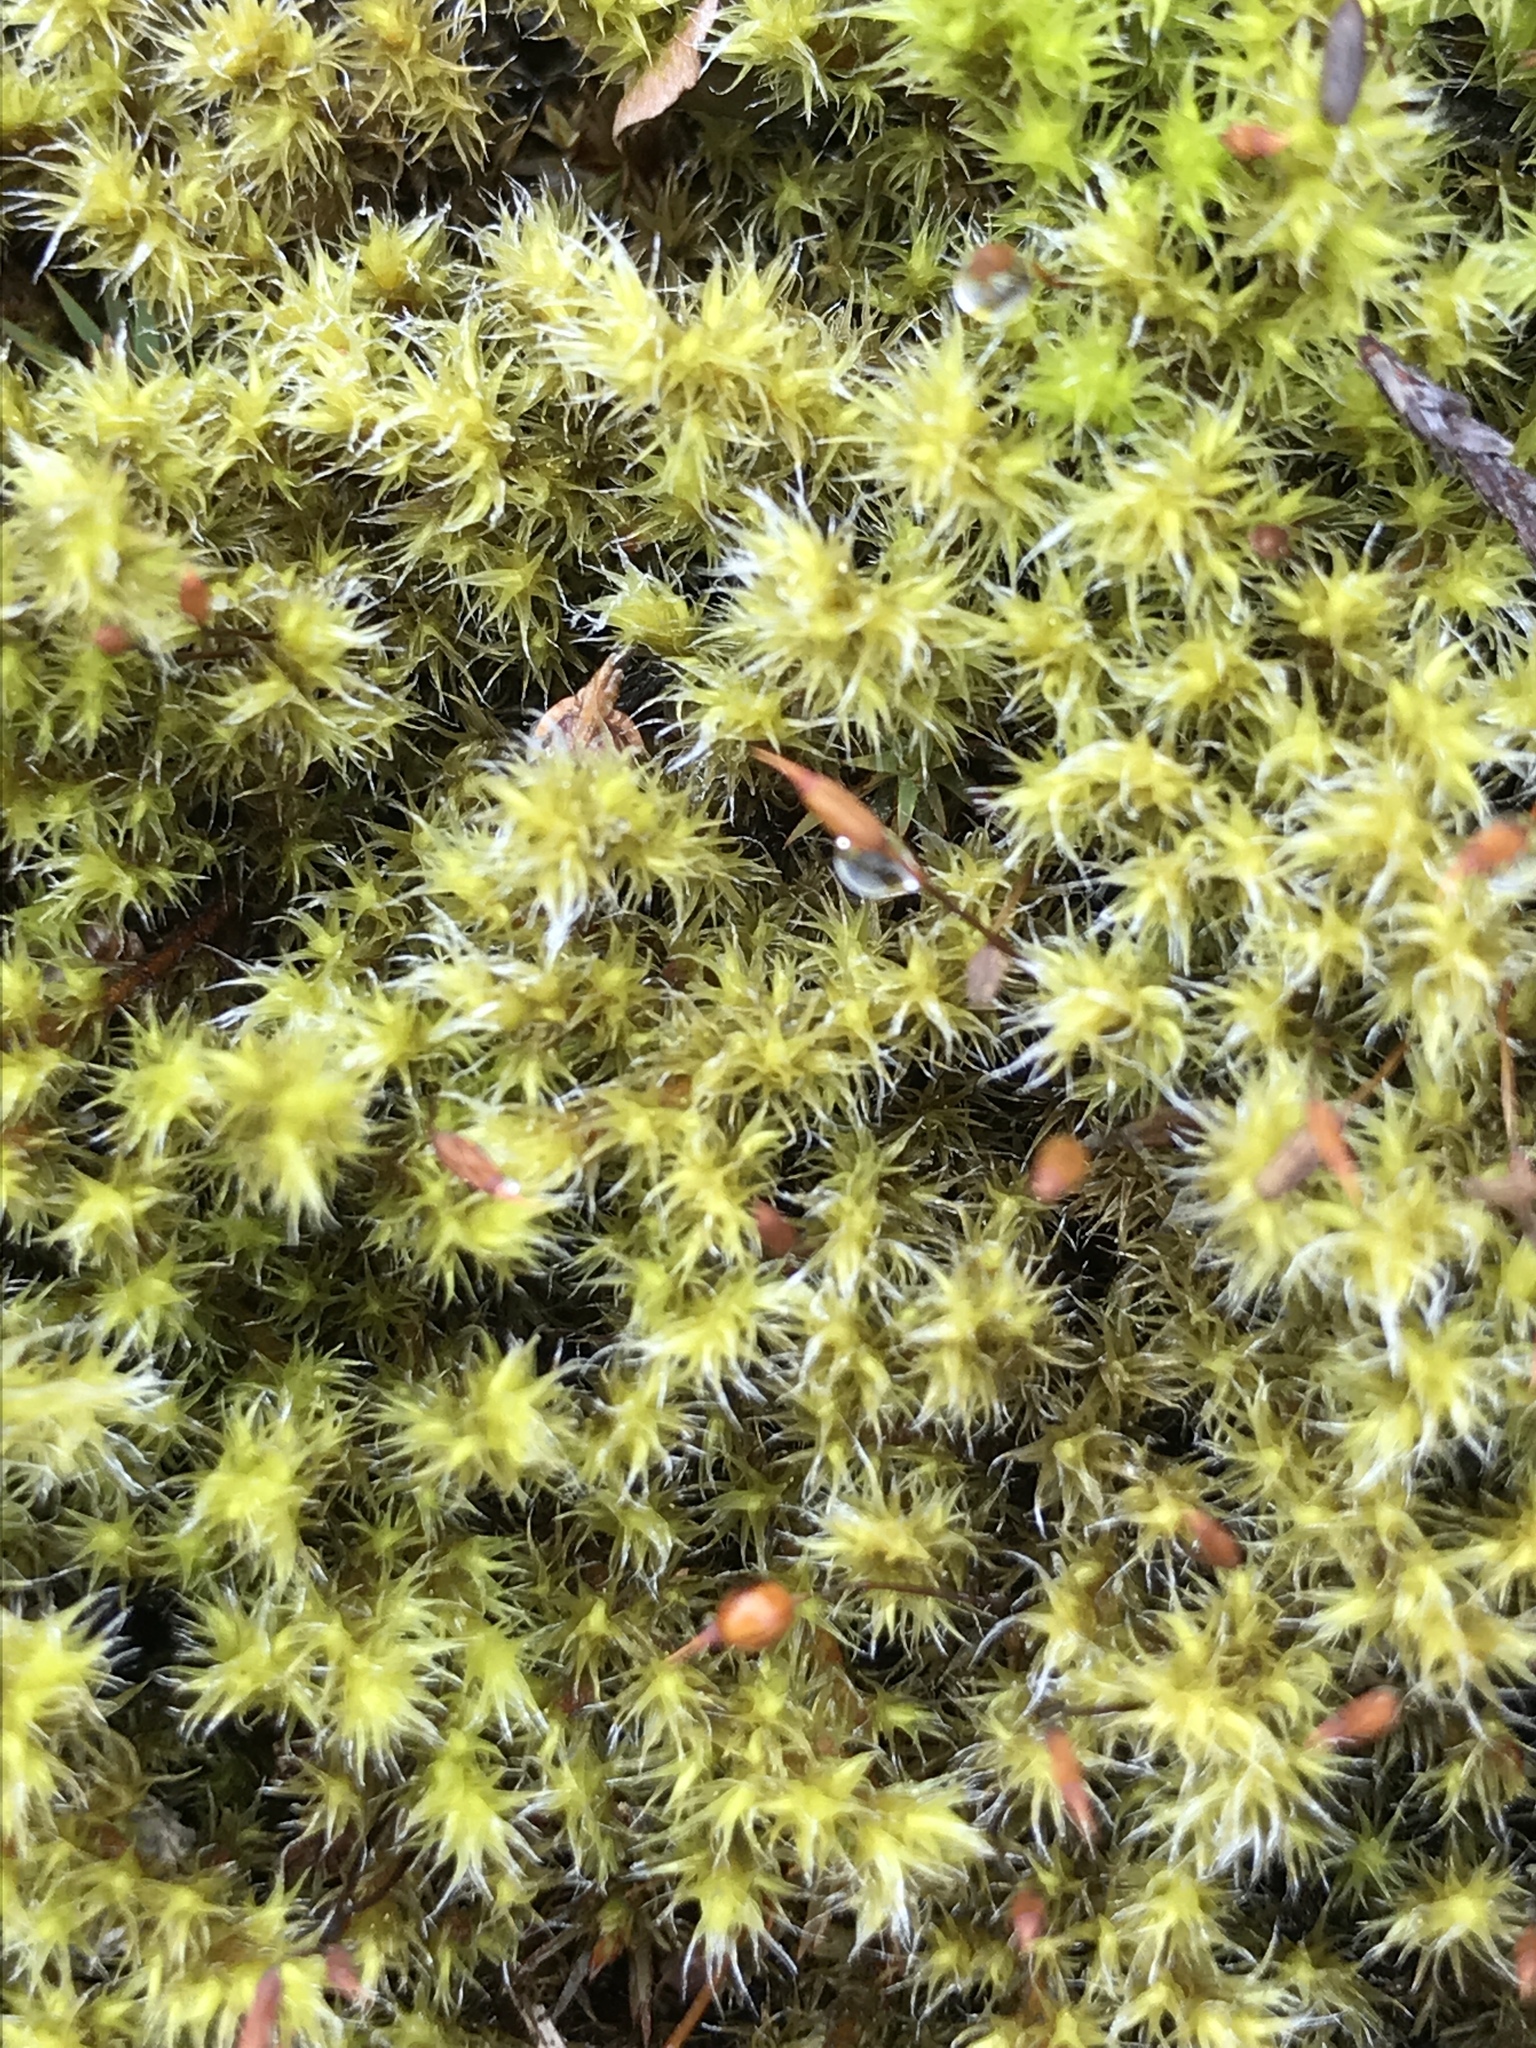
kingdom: Plantae
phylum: Bryophyta
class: Bryopsida
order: Grimmiales
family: Grimmiaceae
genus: Bucklandiella
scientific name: Bucklandiella heterosticha
